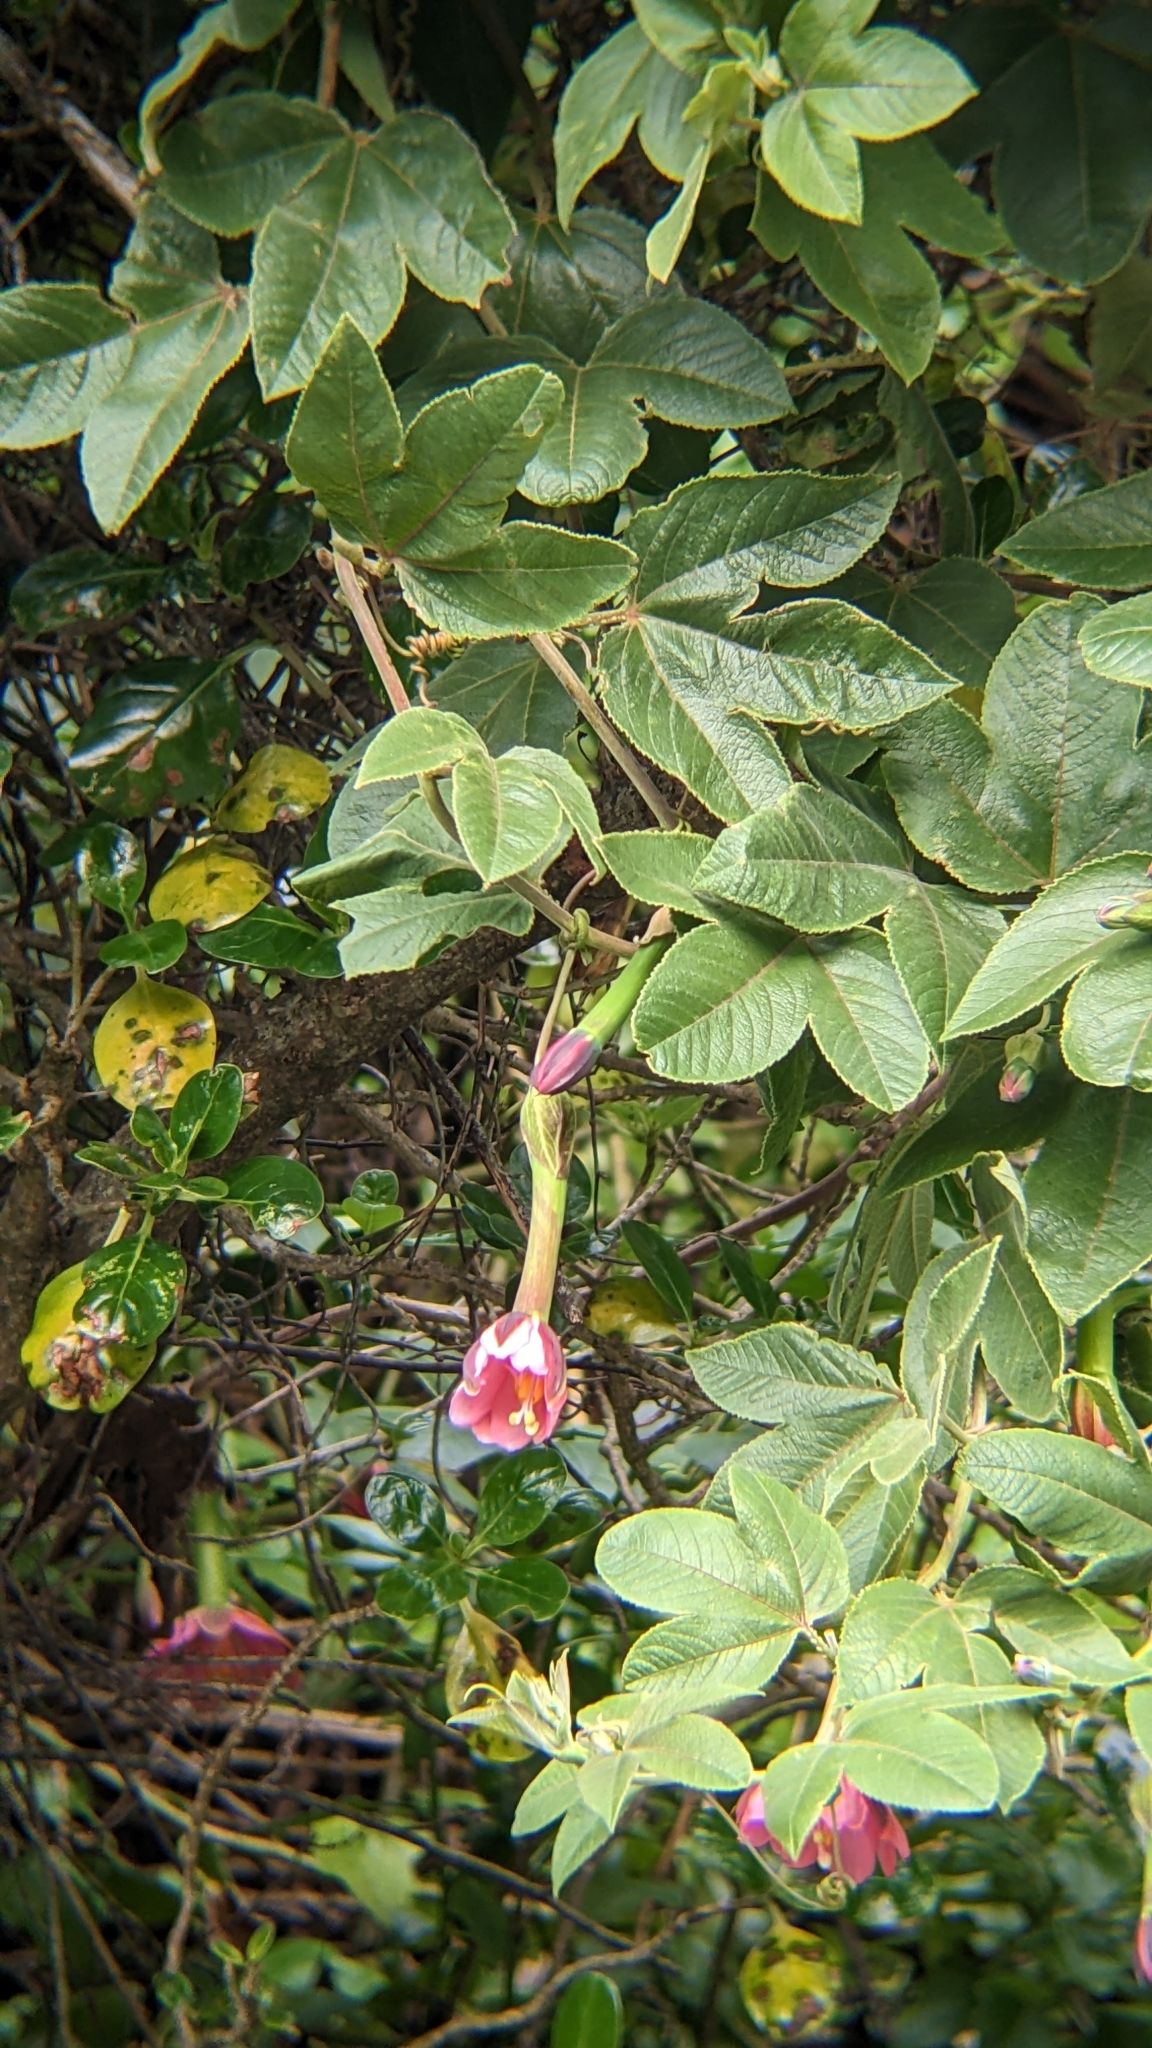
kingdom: Plantae
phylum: Tracheophyta
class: Magnoliopsida
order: Malpighiales
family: Passifloraceae
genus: Passiflora
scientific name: Passiflora tripartita
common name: Banana poka
